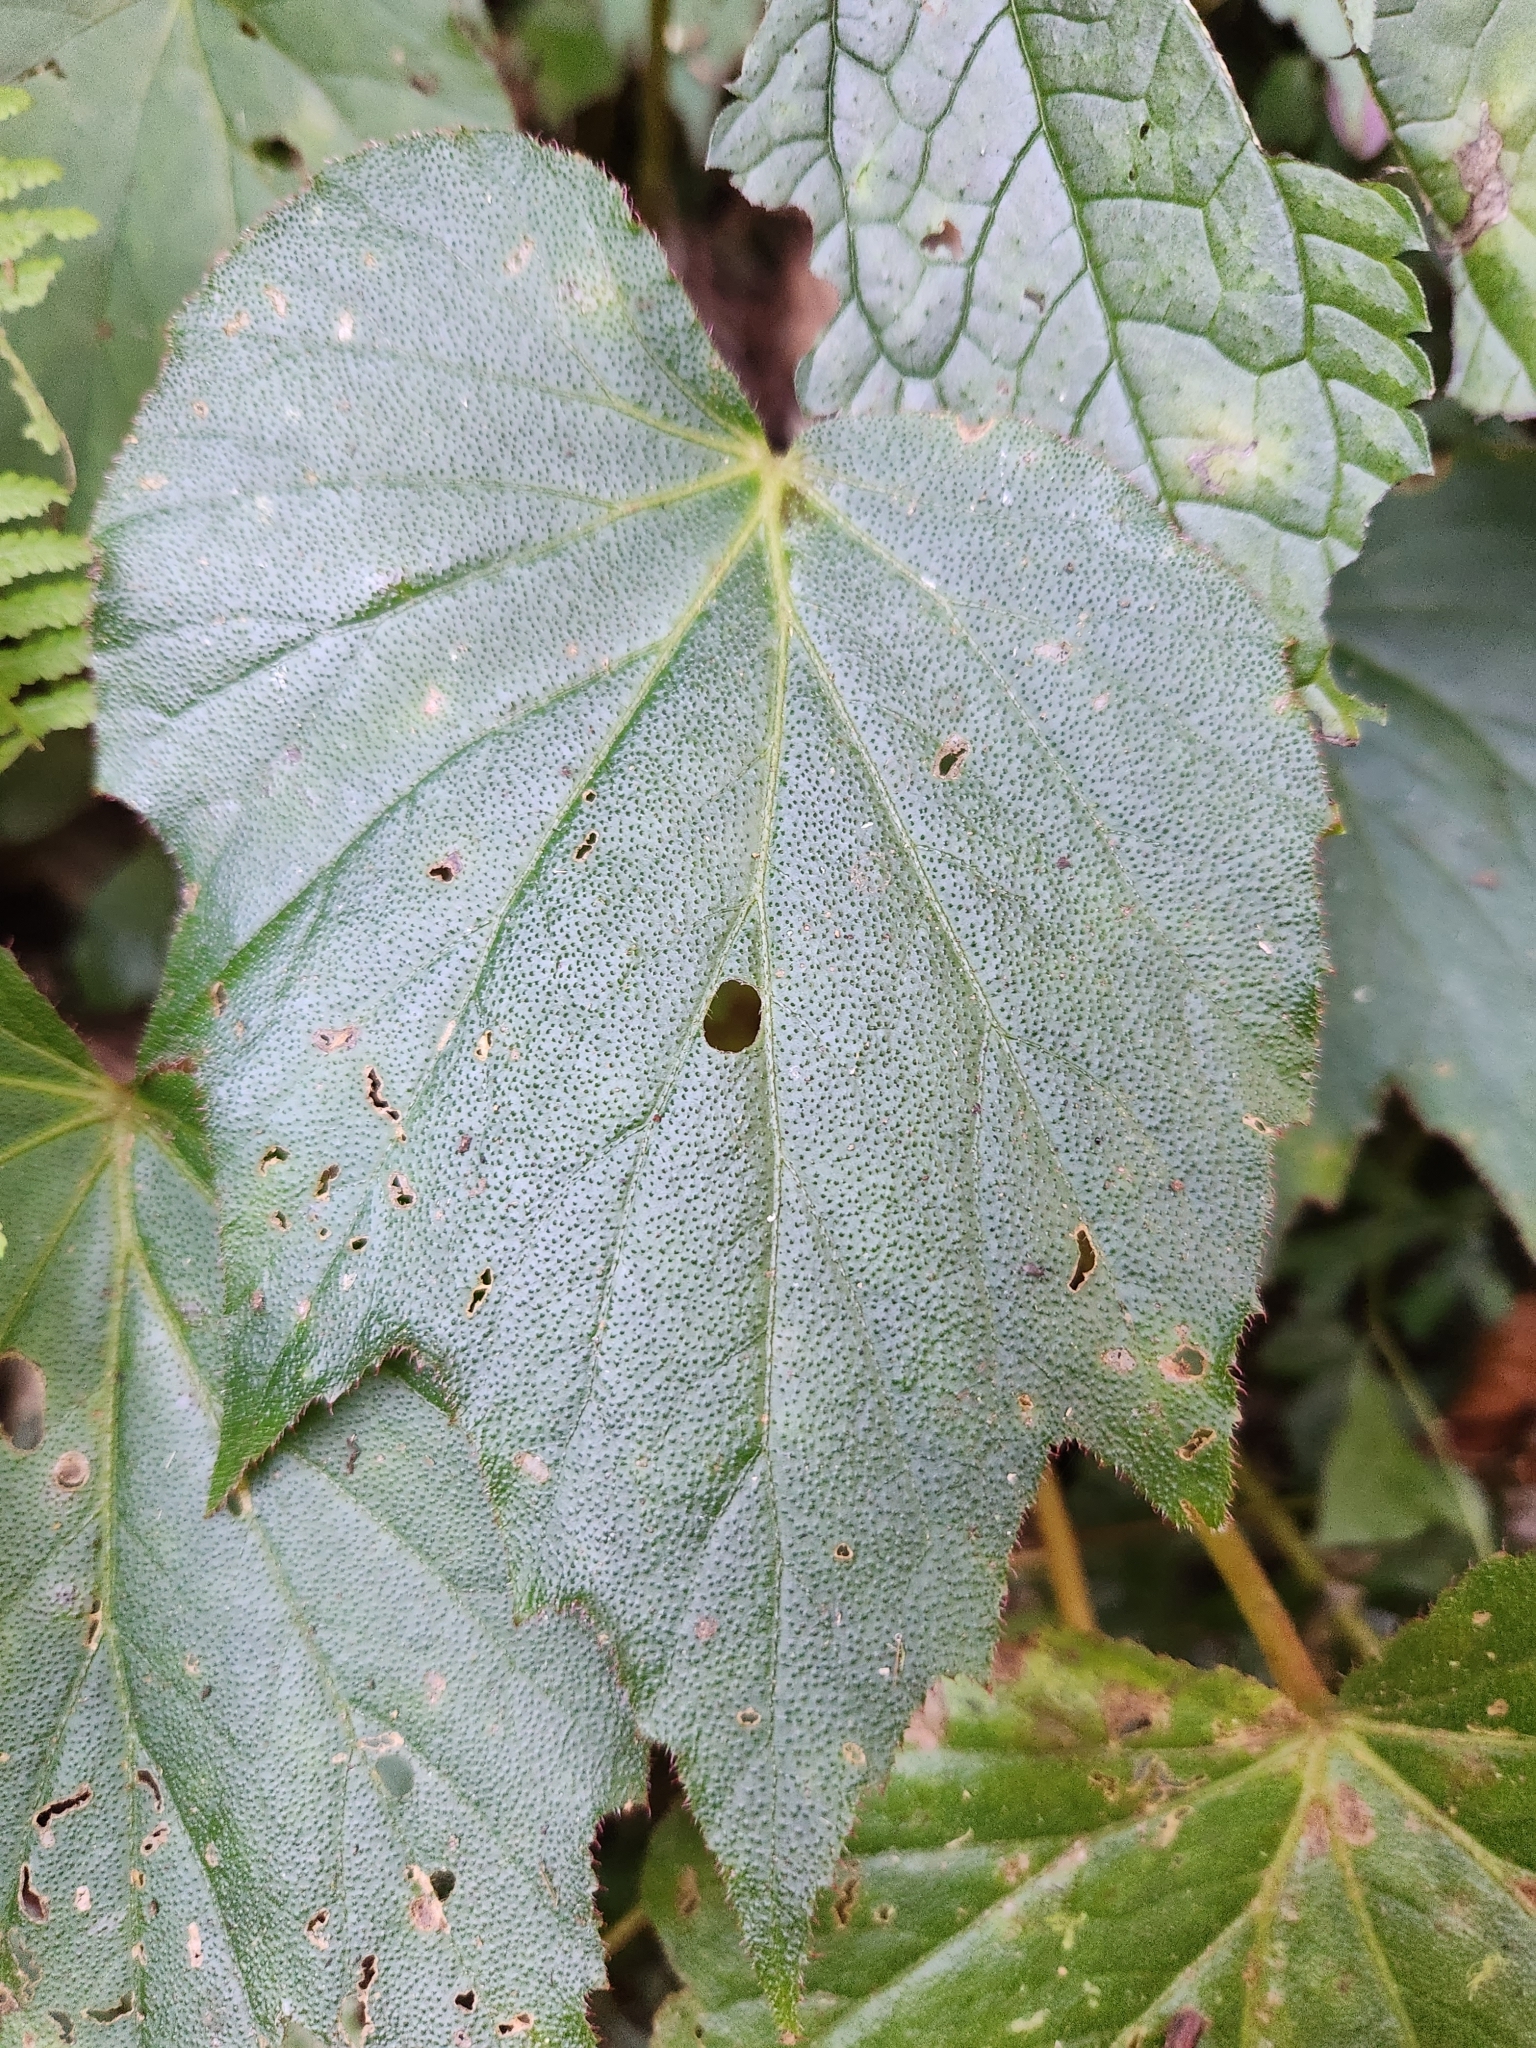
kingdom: Plantae
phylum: Tracheophyta
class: Magnoliopsida
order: Cucurbitales
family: Begoniaceae
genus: Begonia
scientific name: Begonia palmata
